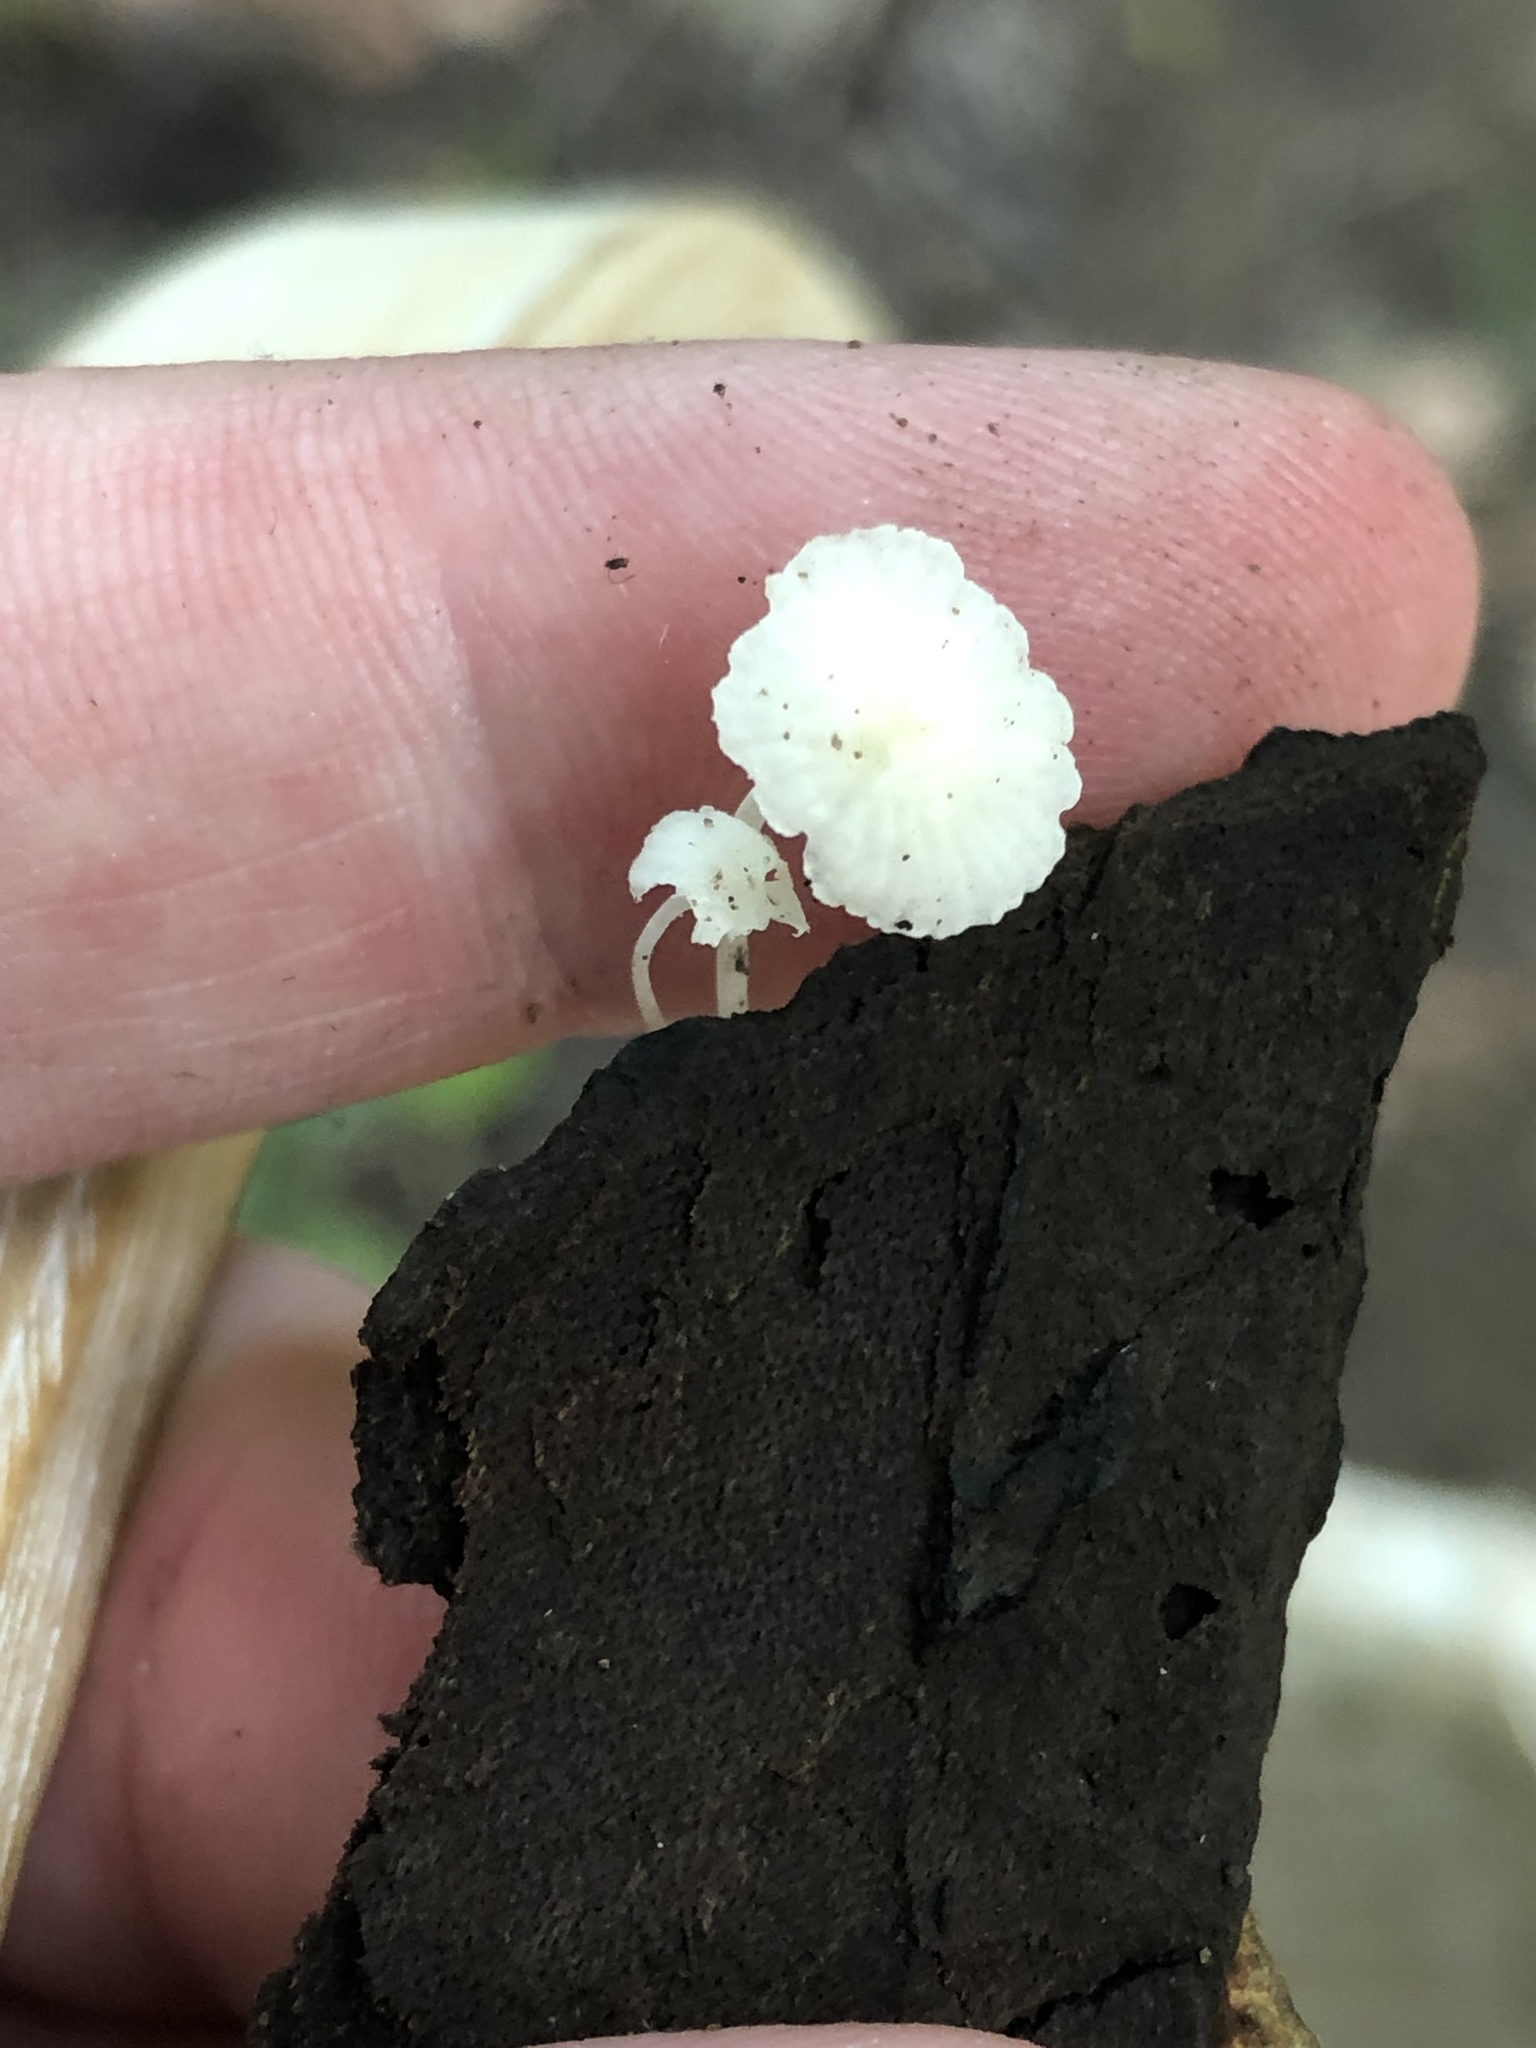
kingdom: Fungi
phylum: Basidiomycota
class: Agaricomycetes
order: Agaricales
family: Omphalotaceae
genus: Marasmiellus
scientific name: Marasmiellus candidus
